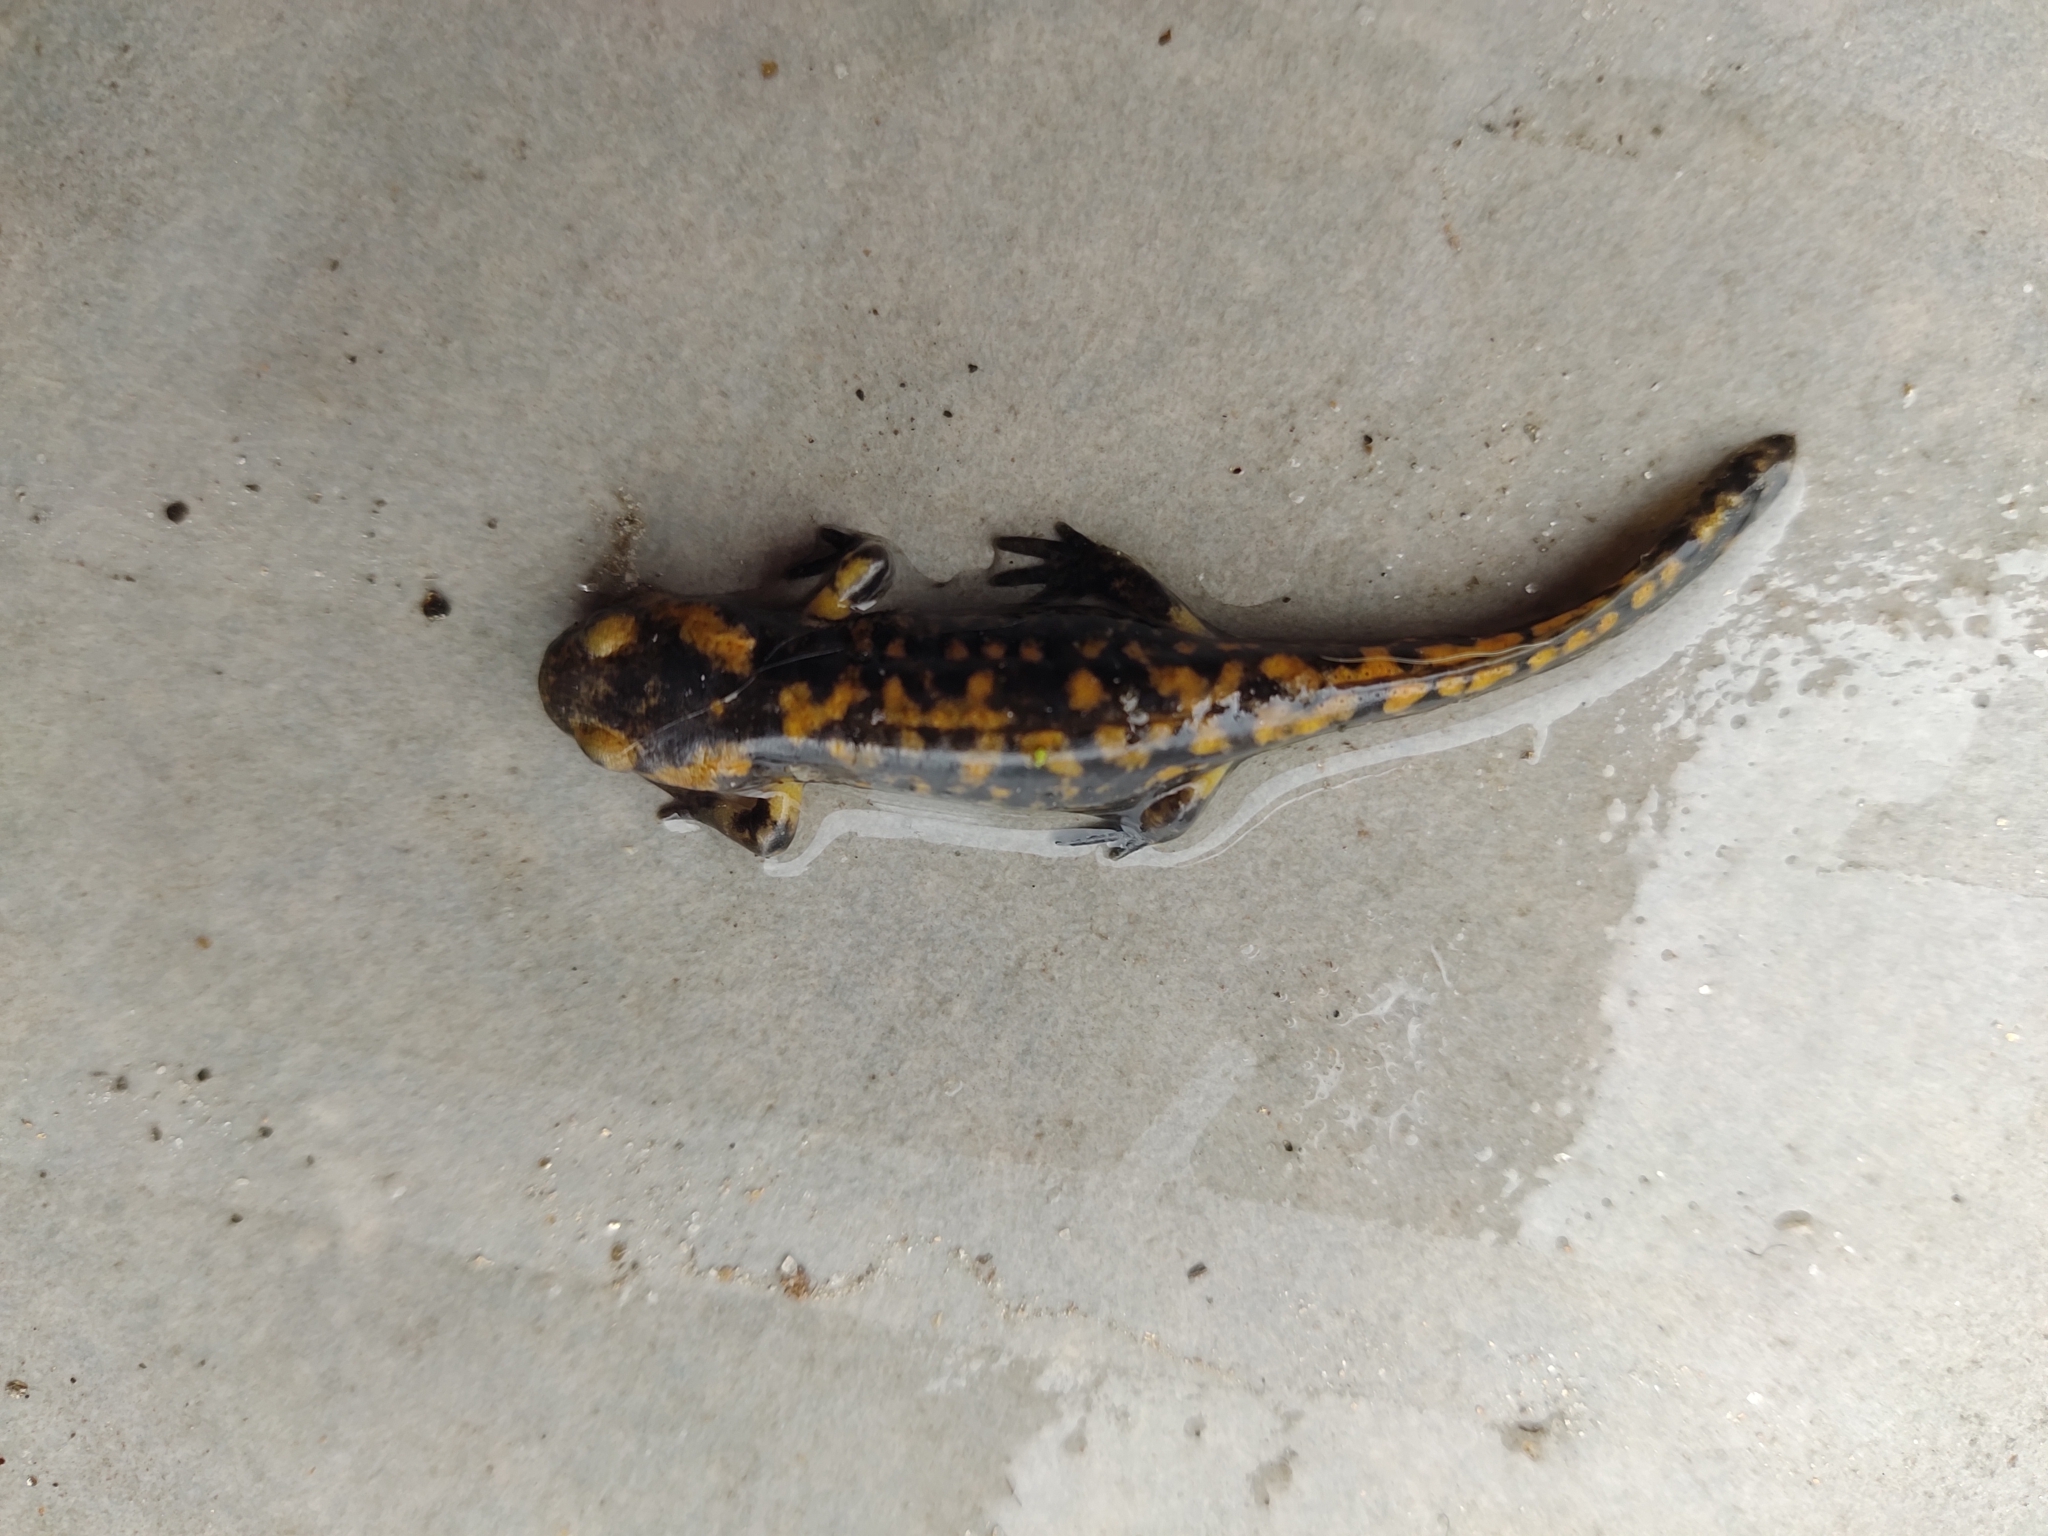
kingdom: Animalia
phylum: Chordata
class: Amphibia
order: Caudata
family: Salamandridae
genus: Salamandra
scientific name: Salamandra salamandra
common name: Fire salamander
